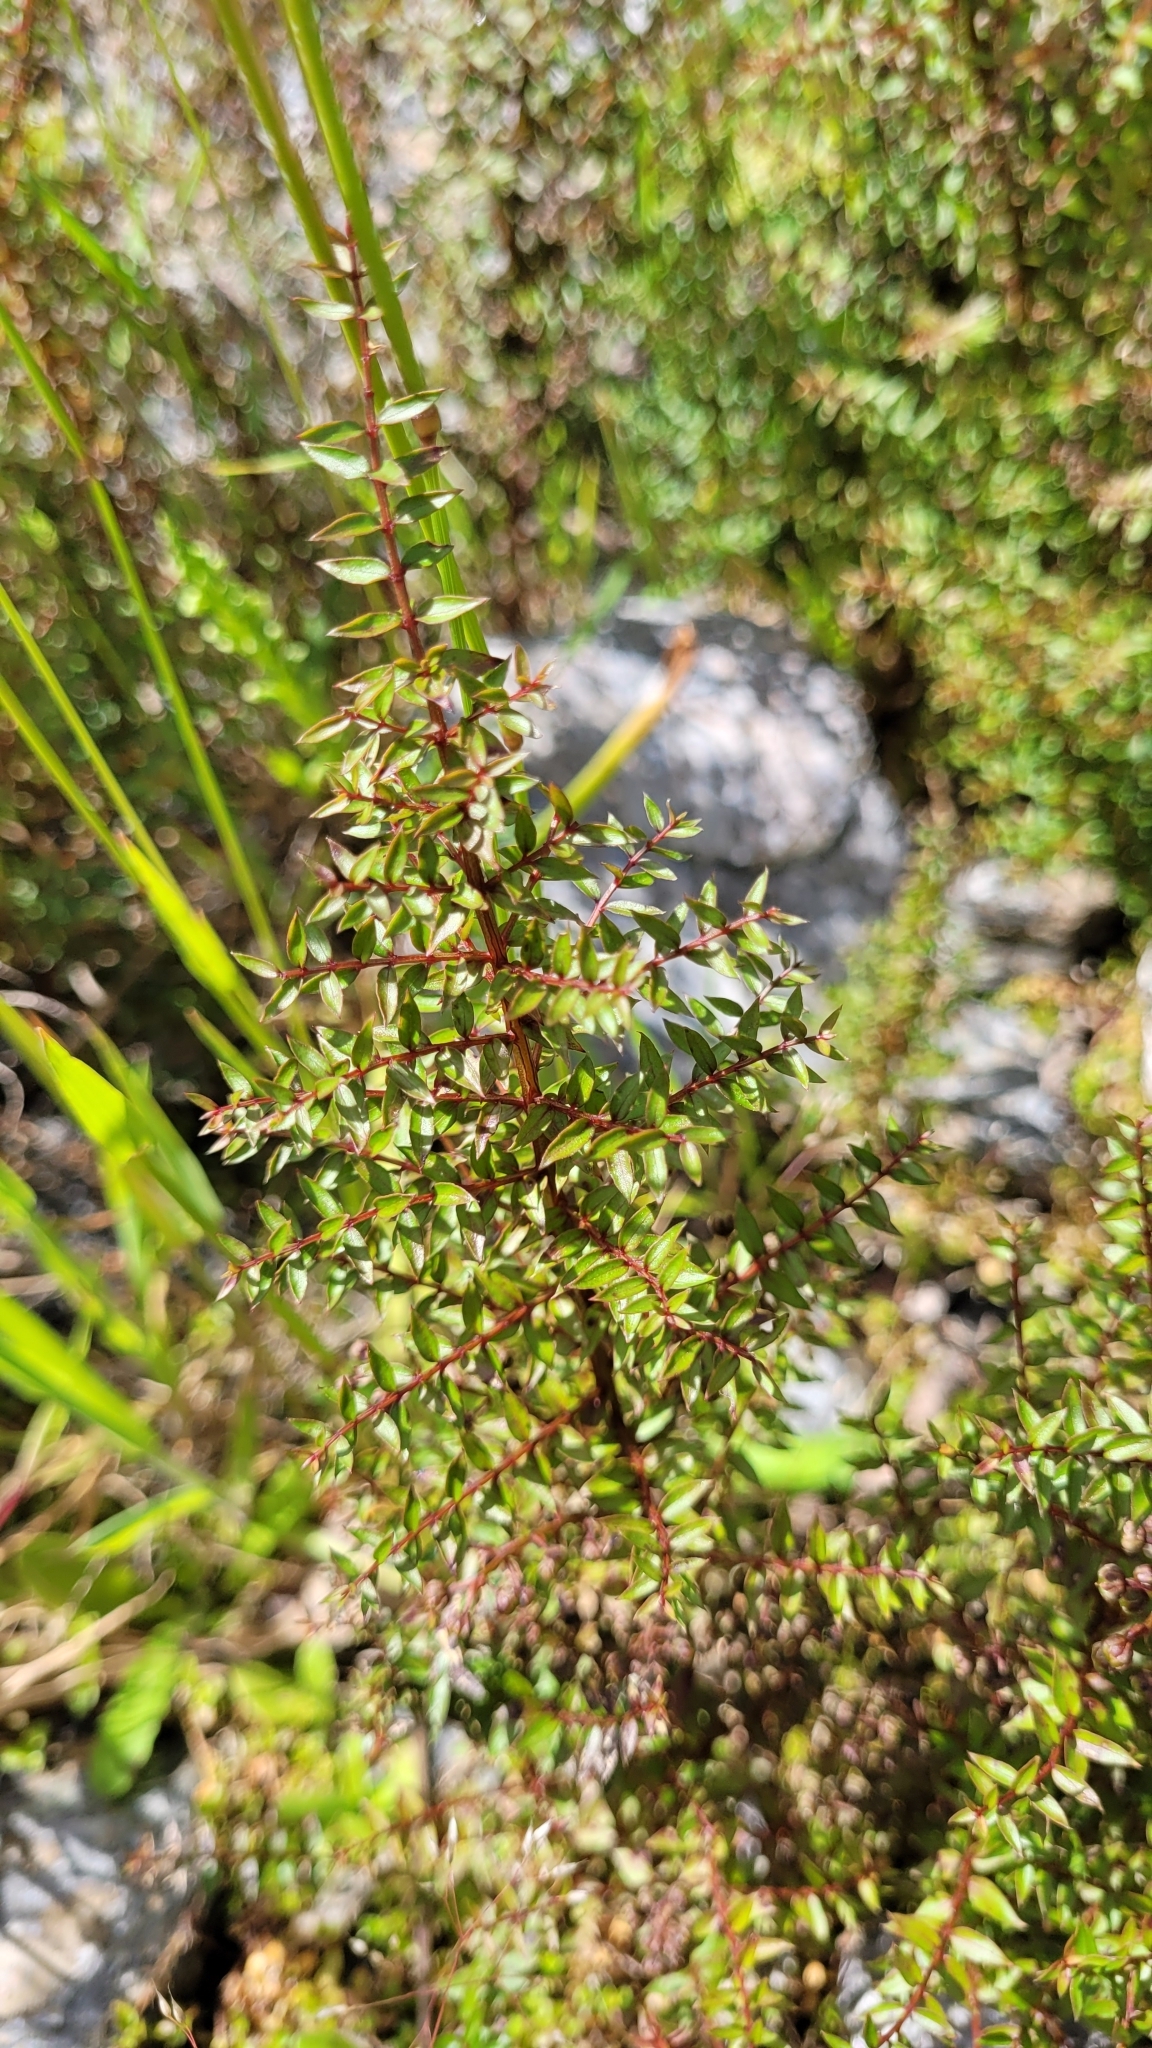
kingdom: Plantae
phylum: Tracheophyta
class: Magnoliopsida
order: Cucurbitales
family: Coriariaceae
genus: Coriaria
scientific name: Coriaria plumosa
